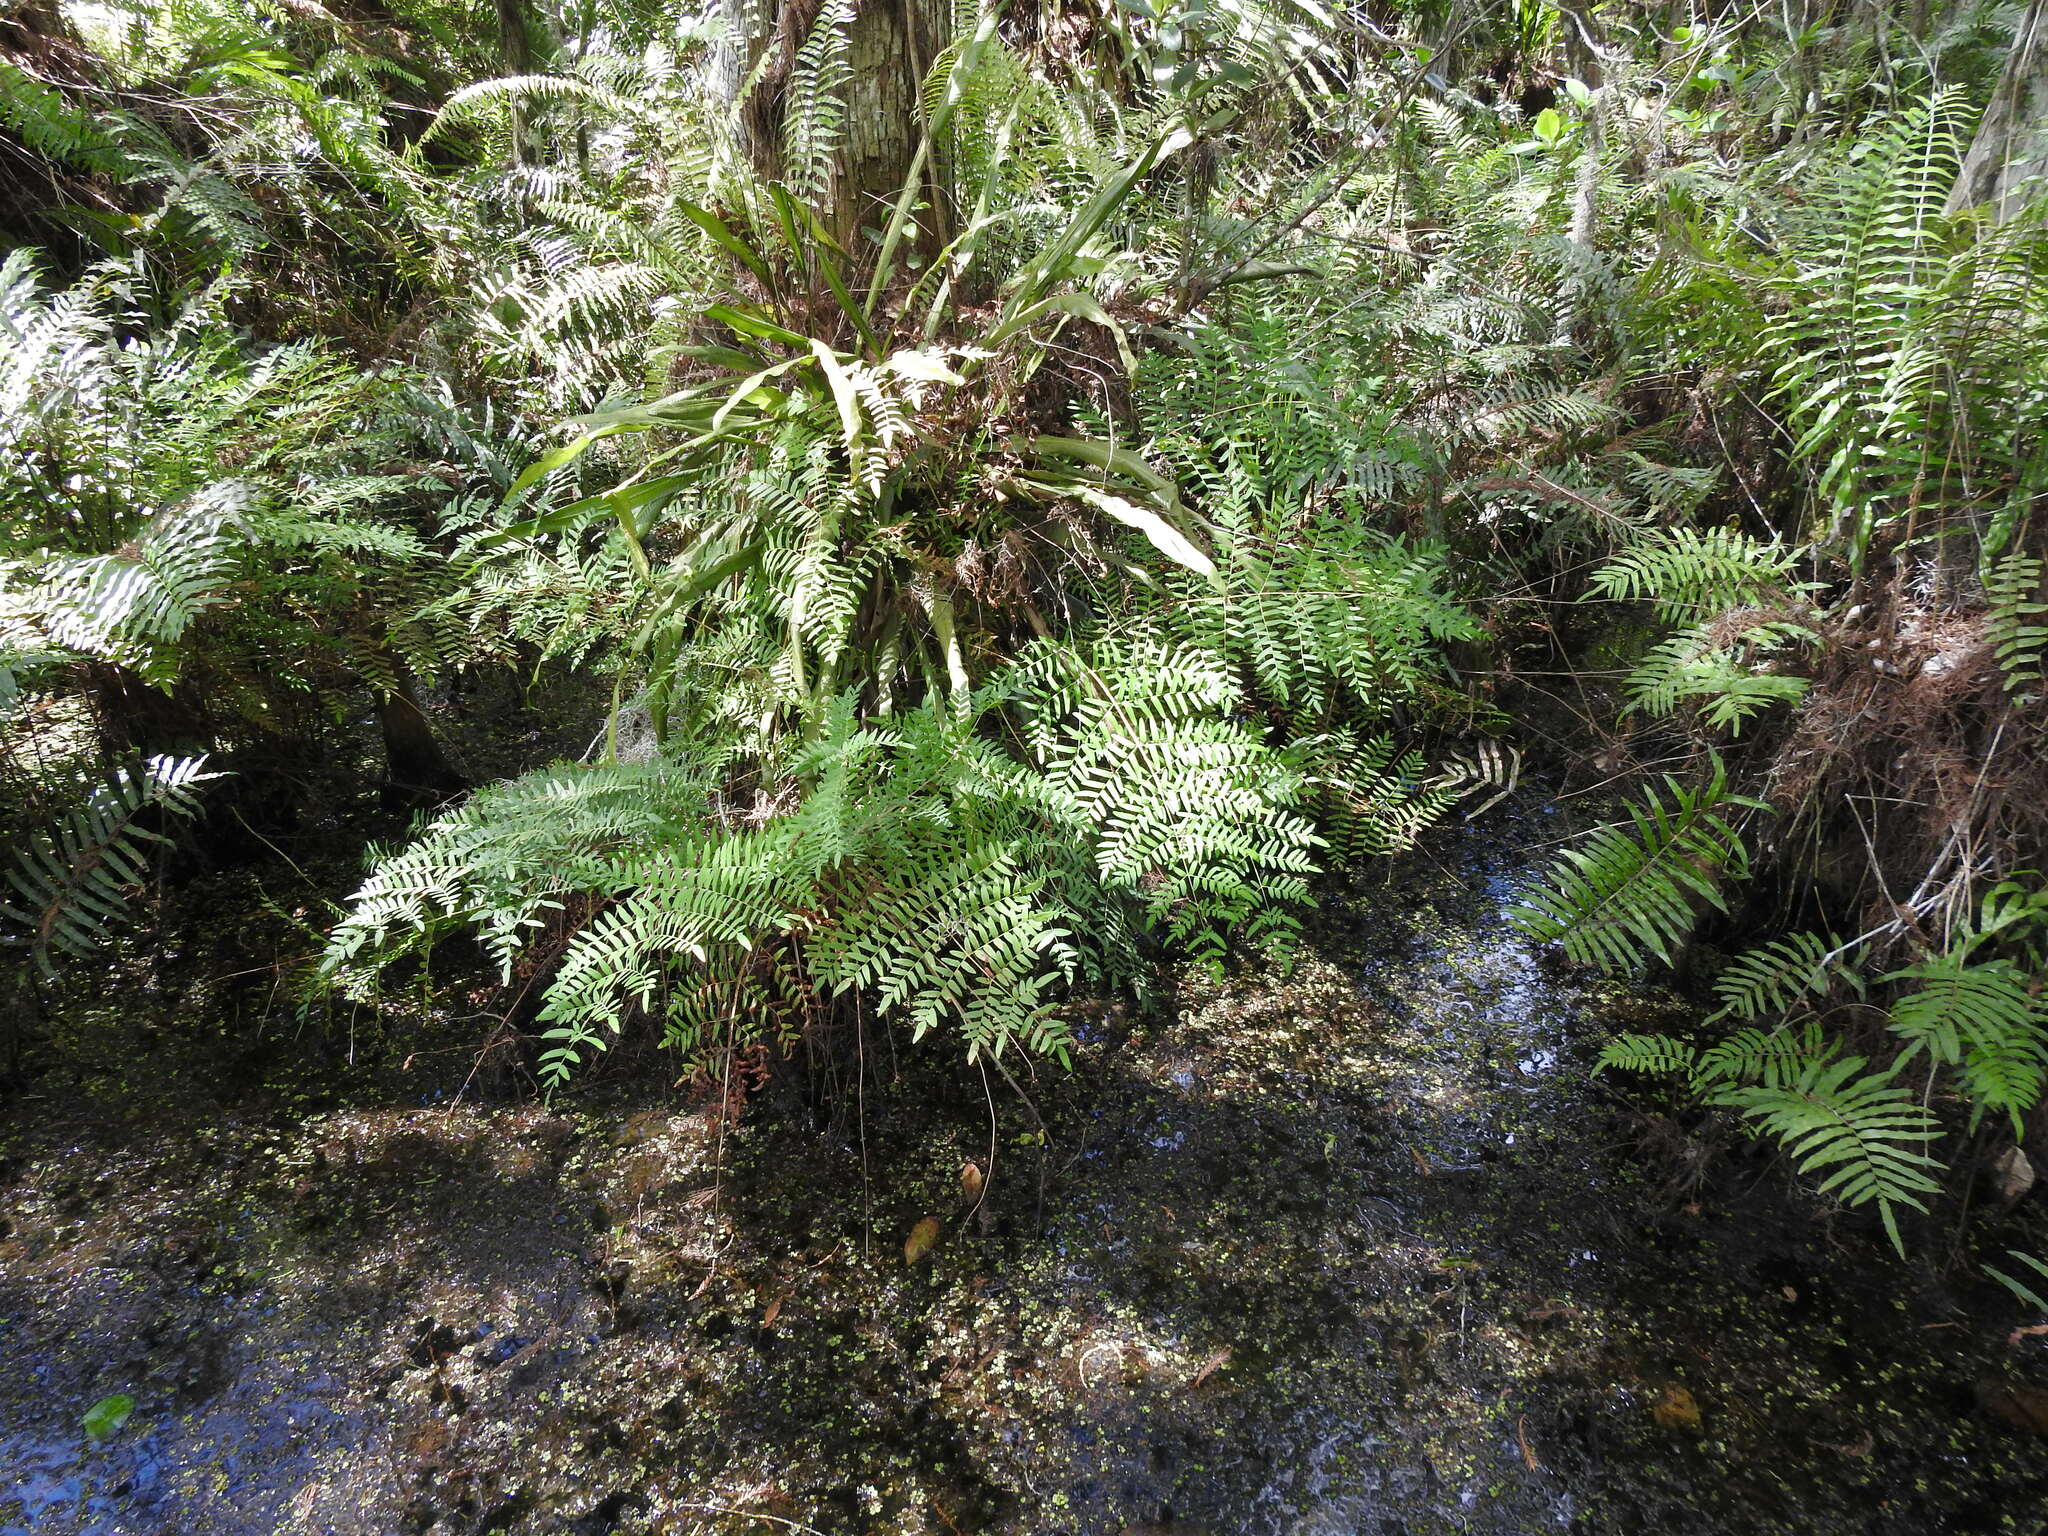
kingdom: Plantae
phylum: Tracheophyta
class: Polypodiopsida
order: Osmundales
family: Osmundaceae
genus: Osmunda
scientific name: Osmunda spectabilis
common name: American royal fern
